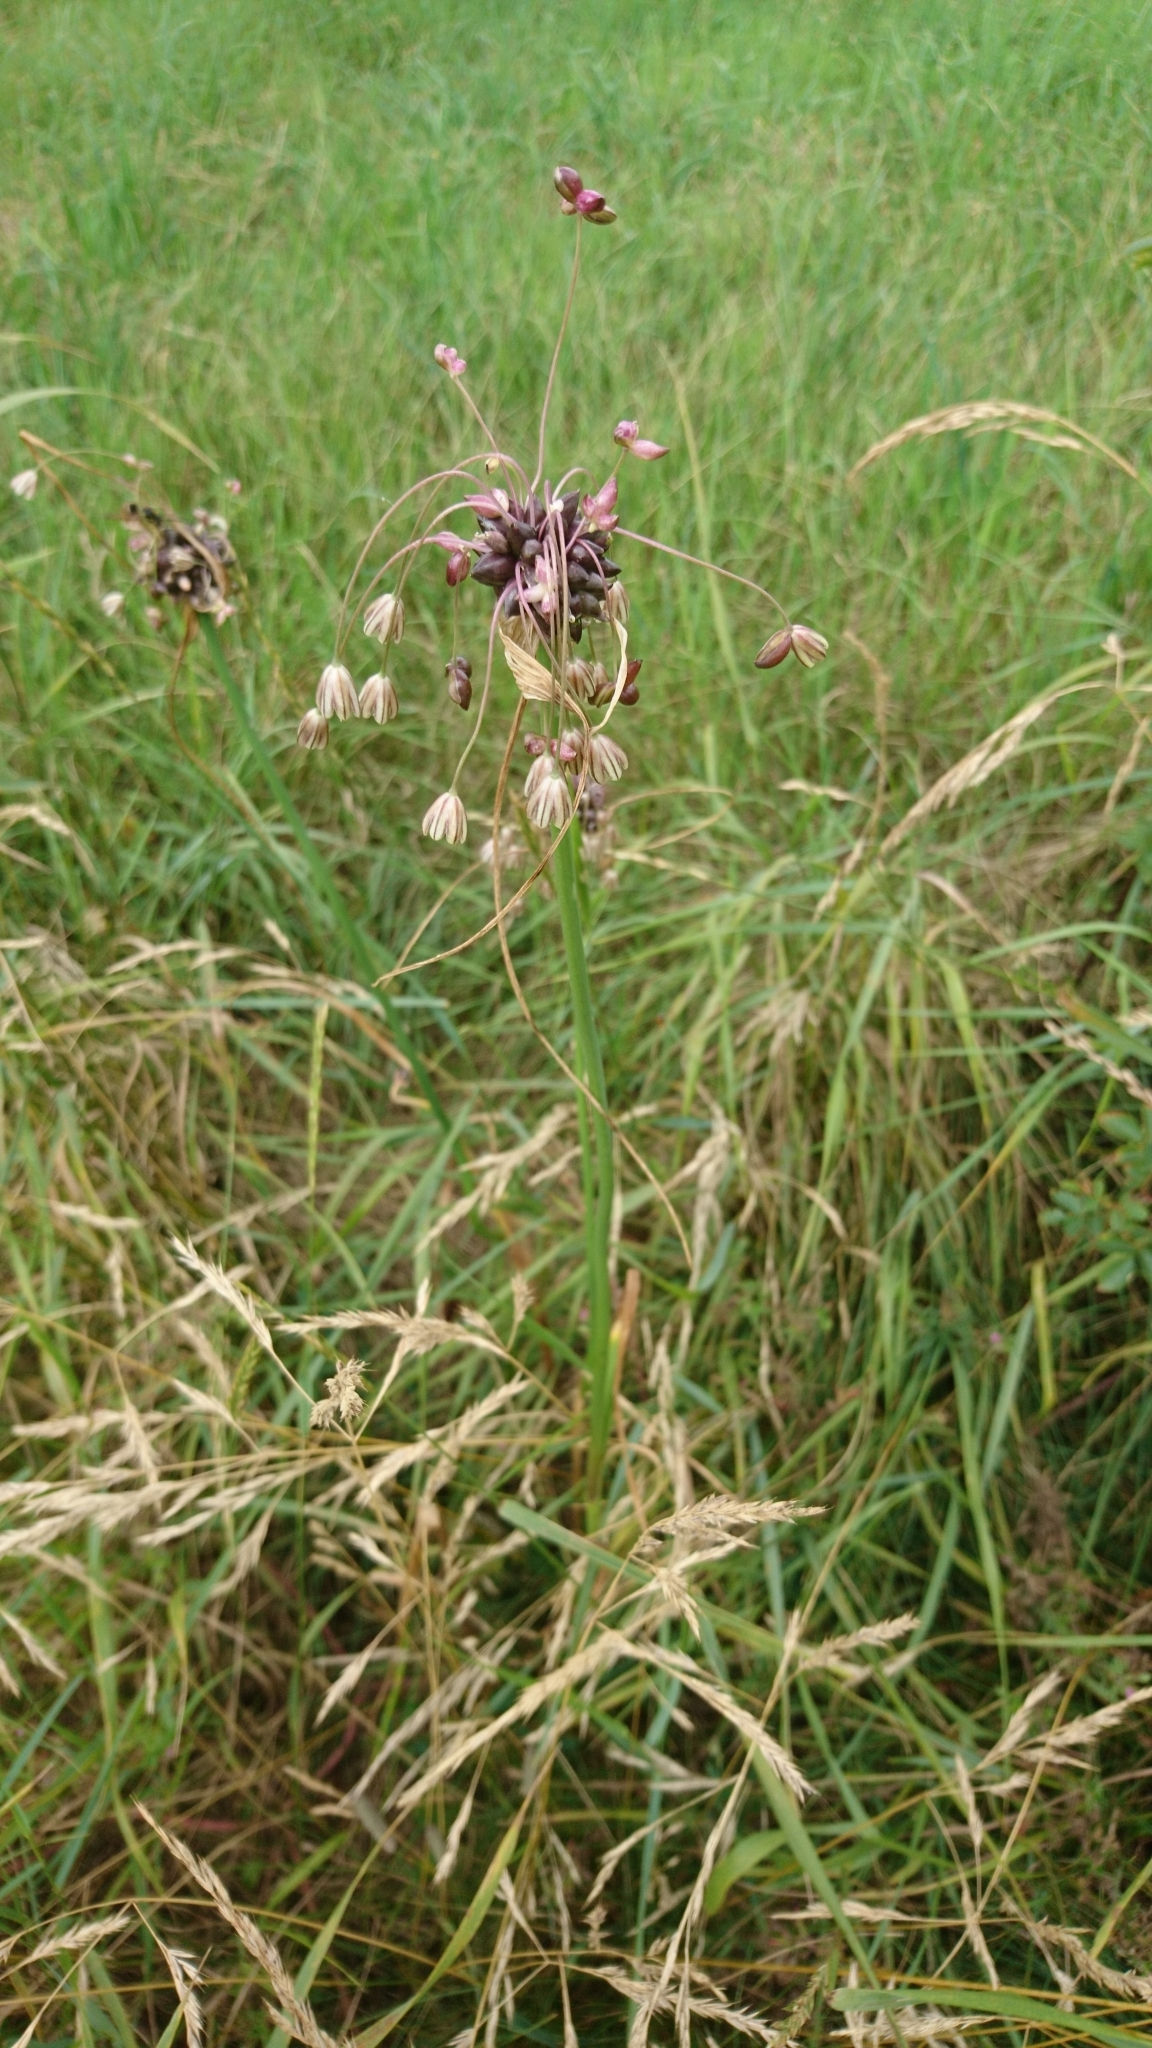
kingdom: Plantae
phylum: Tracheophyta
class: Liliopsida
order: Asparagales
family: Amaryllidaceae
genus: Allium
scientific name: Allium oleraceum
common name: Field garlic
